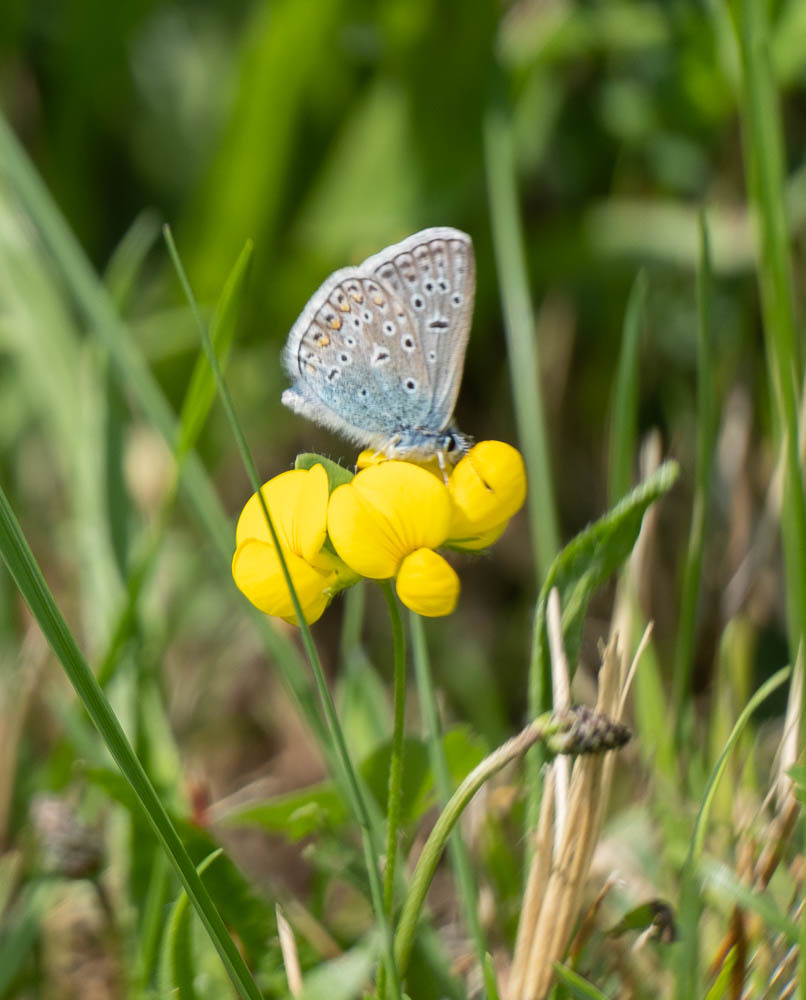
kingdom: Animalia
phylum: Arthropoda
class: Insecta
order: Lepidoptera
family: Lycaenidae
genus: Polyommatus
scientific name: Polyommatus icarus
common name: Common blue
